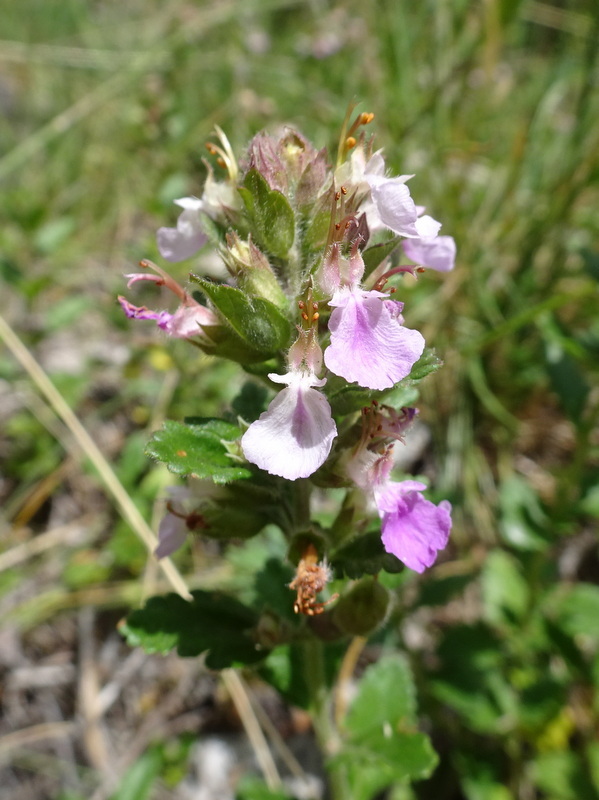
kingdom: Plantae
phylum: Tracheophyta
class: Magnoliopsida
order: Lamiales
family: Lamiaceae
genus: Teucrium
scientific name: Teucrium chamaedrys
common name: Wall germander
